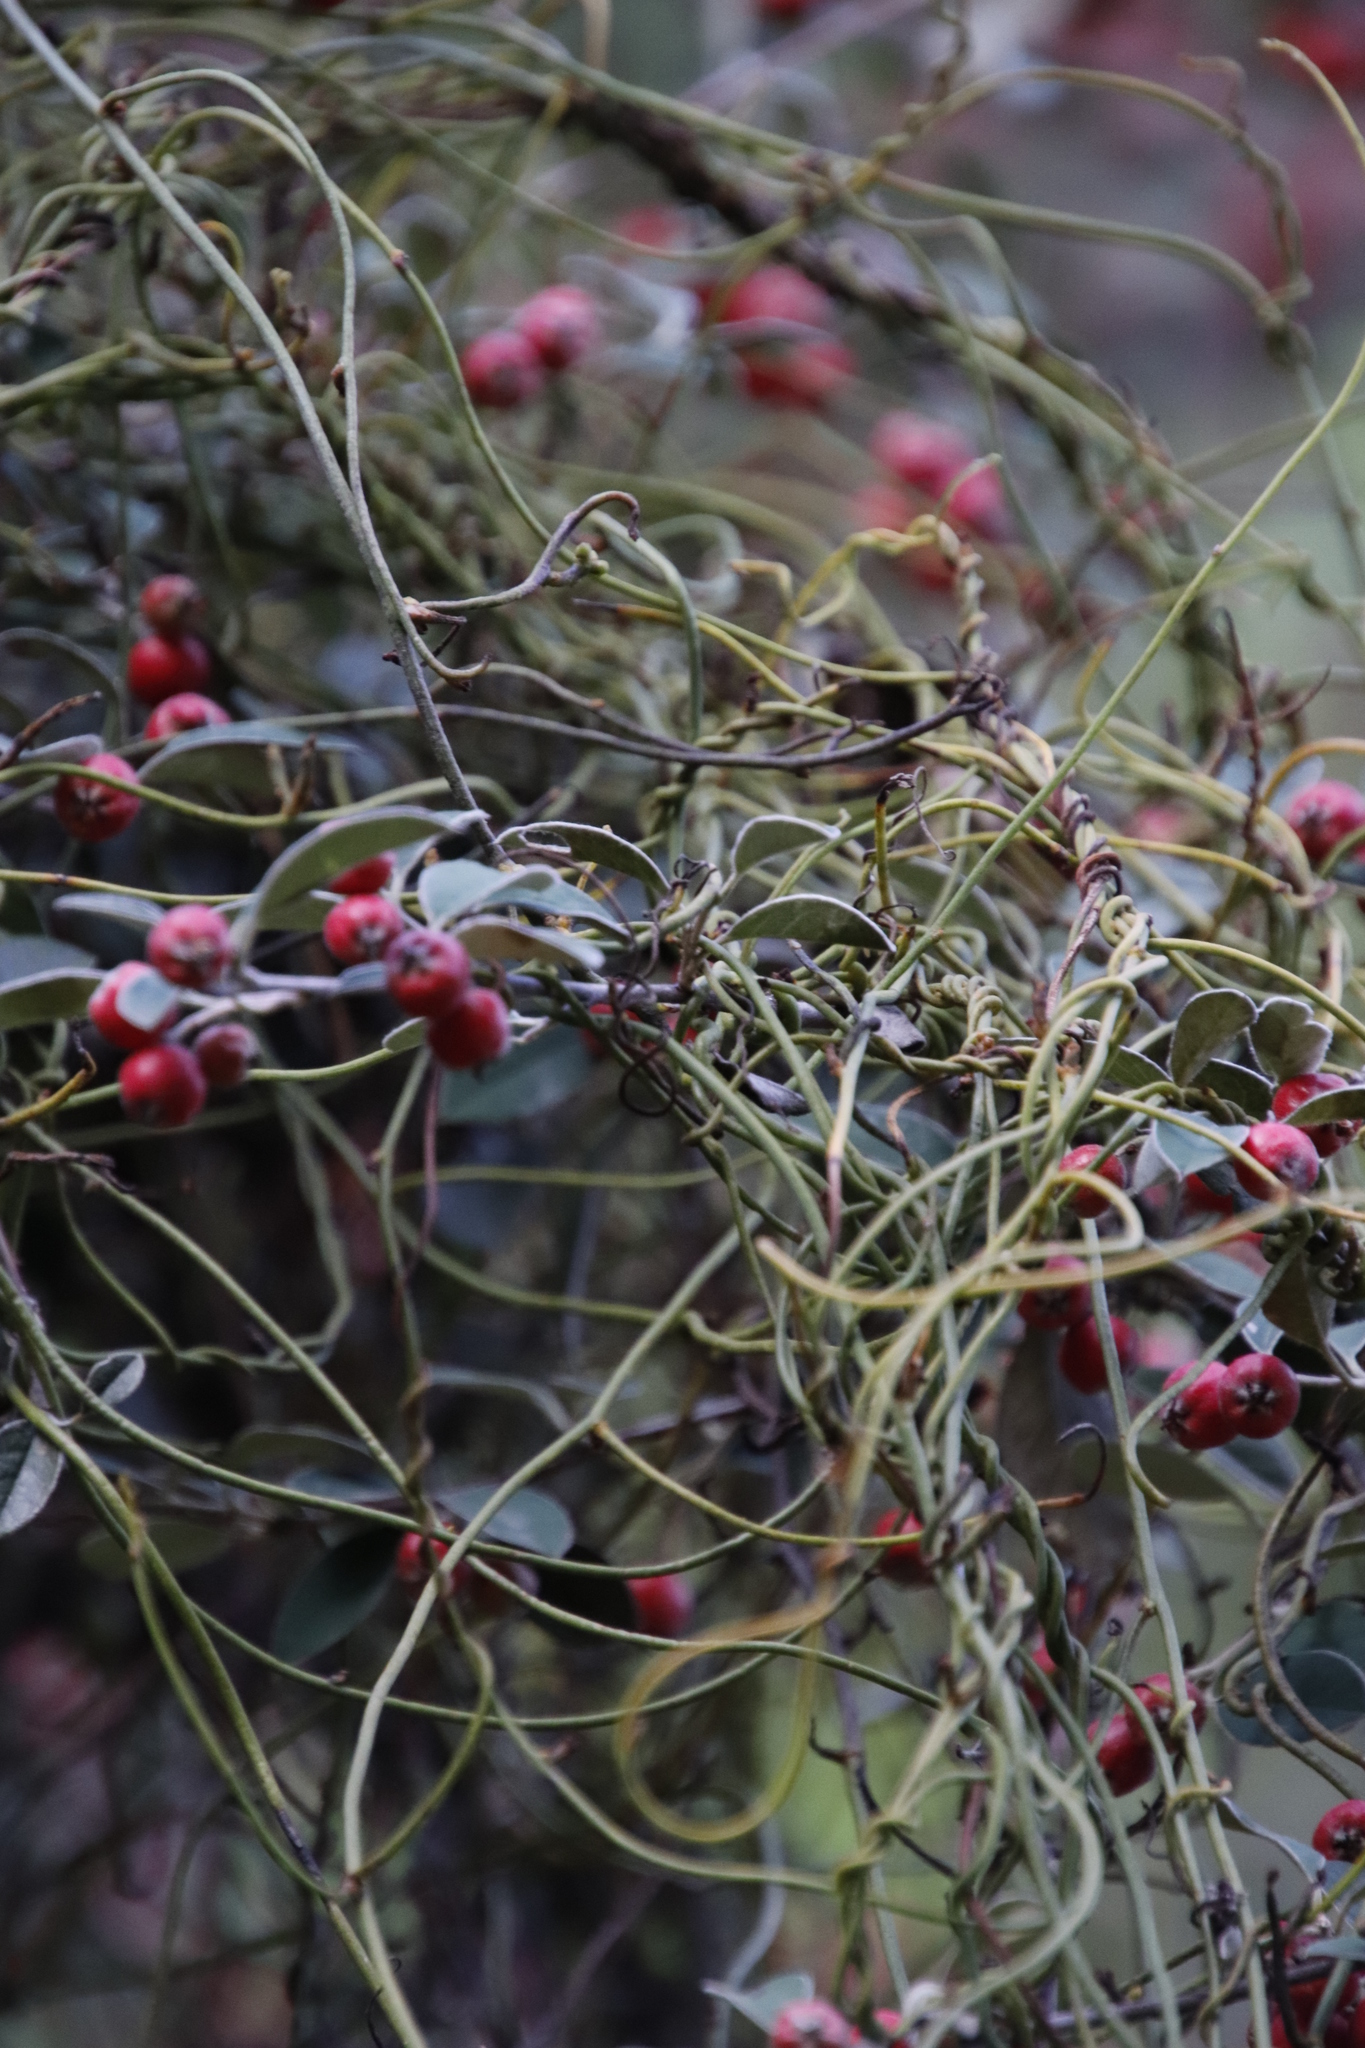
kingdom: Plantae
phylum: Tracheophyta
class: Magnoliopsida
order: Laurales
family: Lauraceae
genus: Cassytha
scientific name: Cassytha ciliolata
